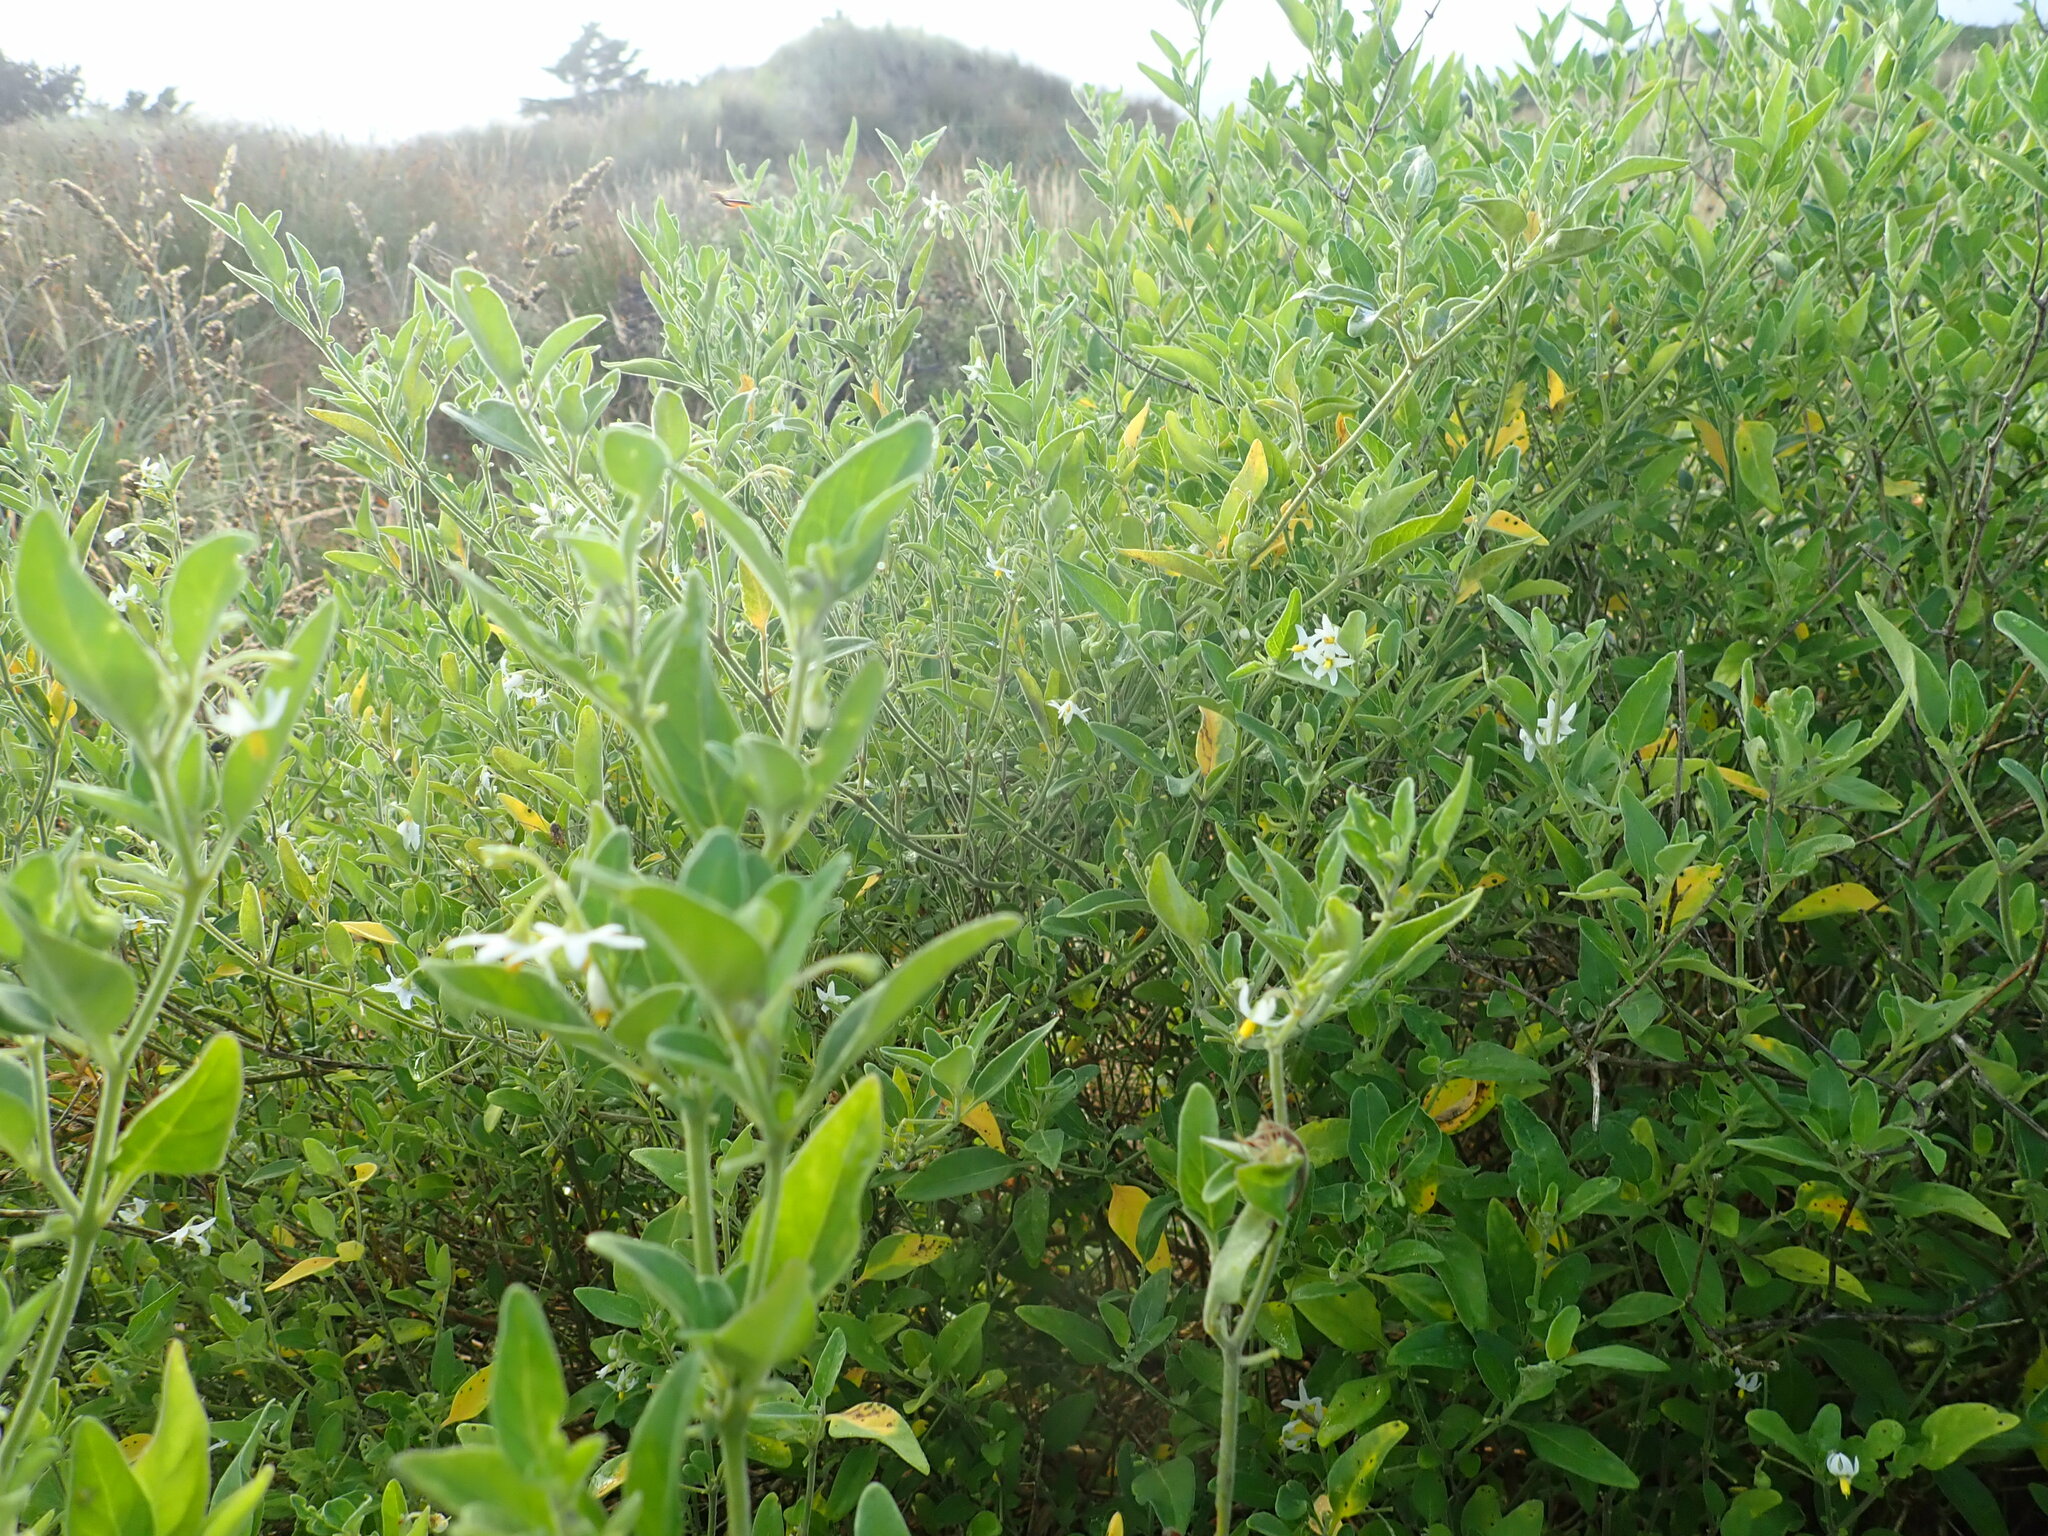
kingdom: Plantae
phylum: Tracheophyta
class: Magnoliopsida
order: Solanales
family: Solanaceae
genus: Solanum
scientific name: Solanum chenopodioides
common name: Tall nightshade
